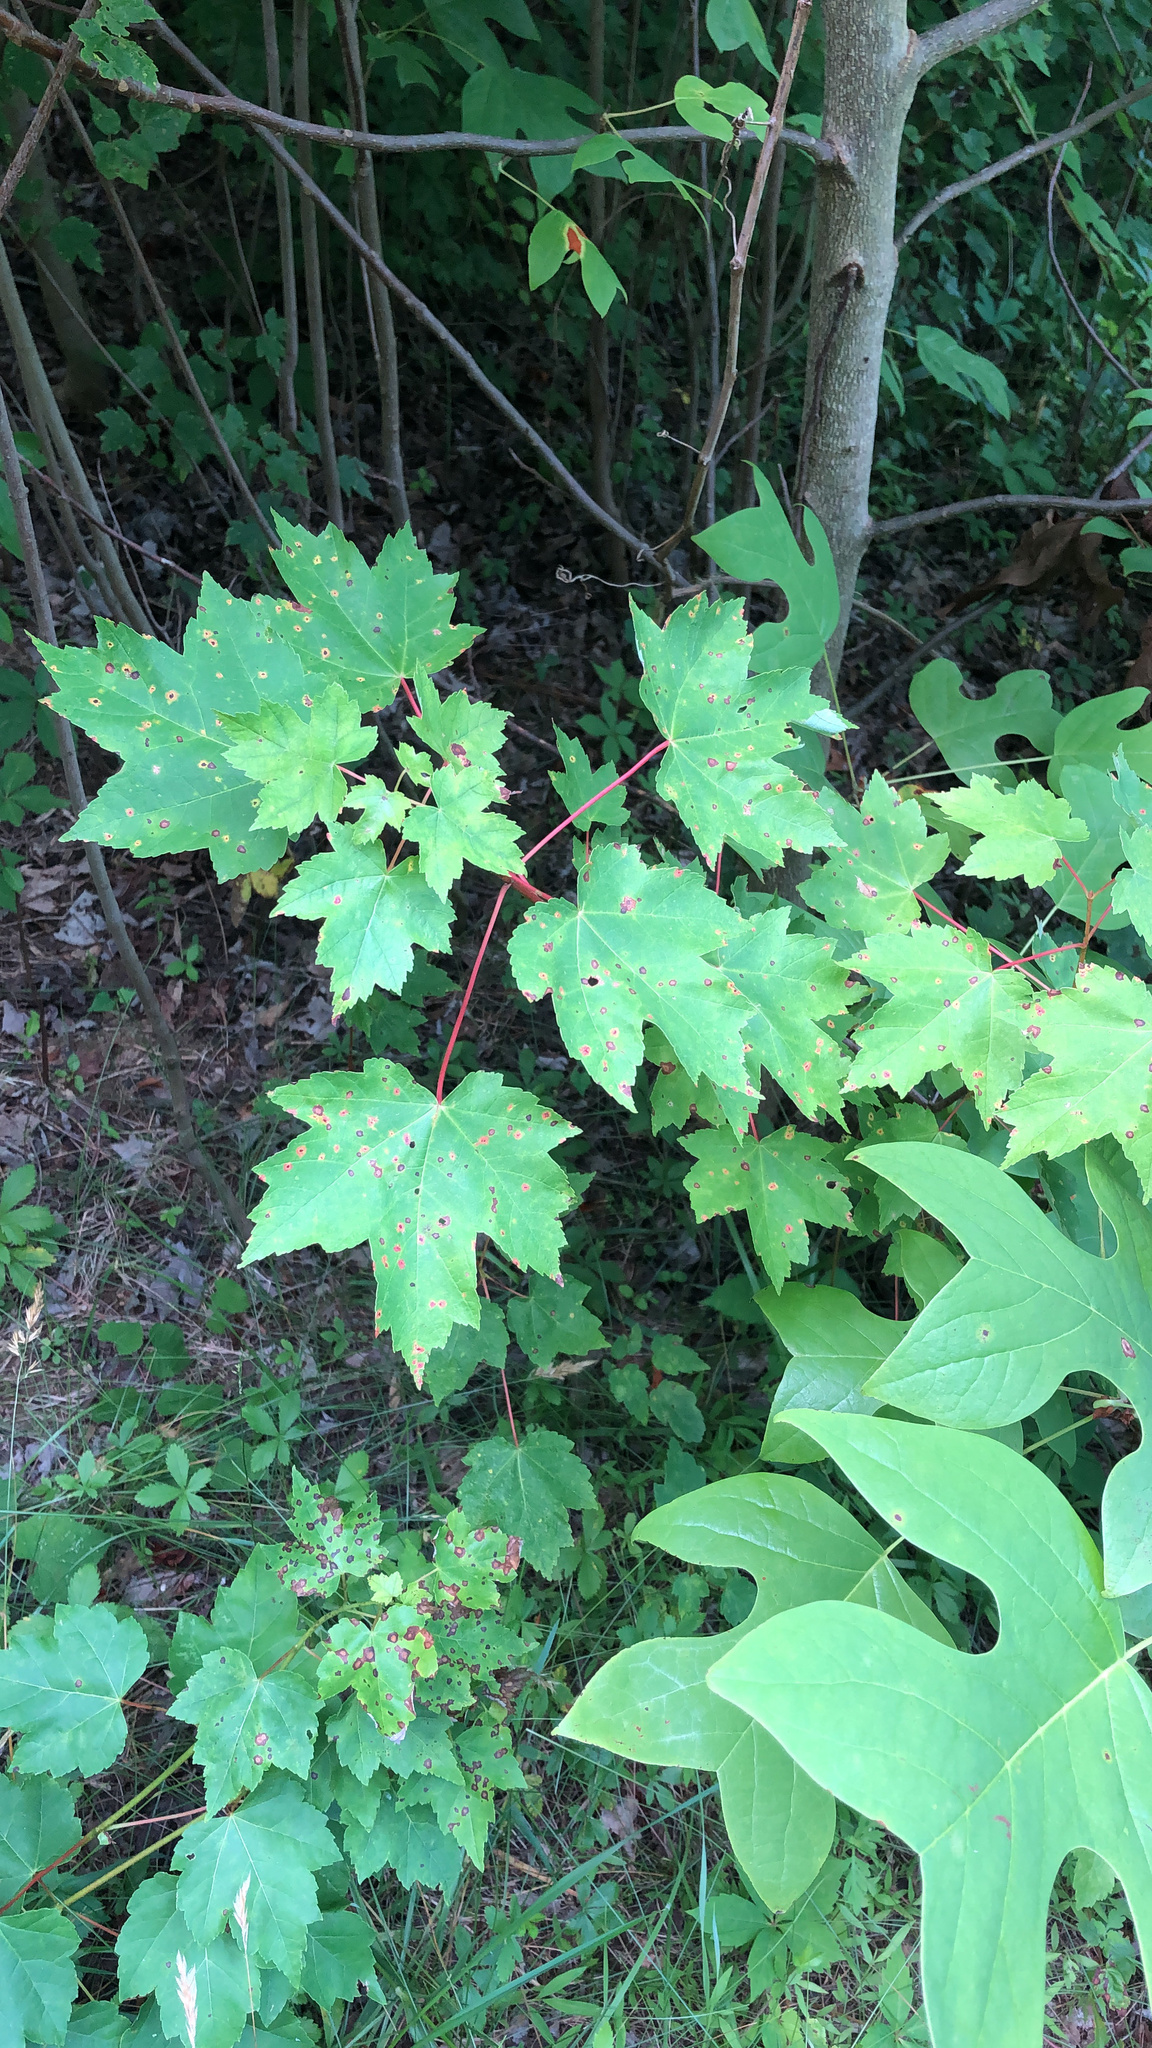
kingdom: Plantae
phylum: Tracheophyta
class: Magnoliopsida
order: Sapindales
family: Sapindaceae
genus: Acer
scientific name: Acer rubrum
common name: Red maple
